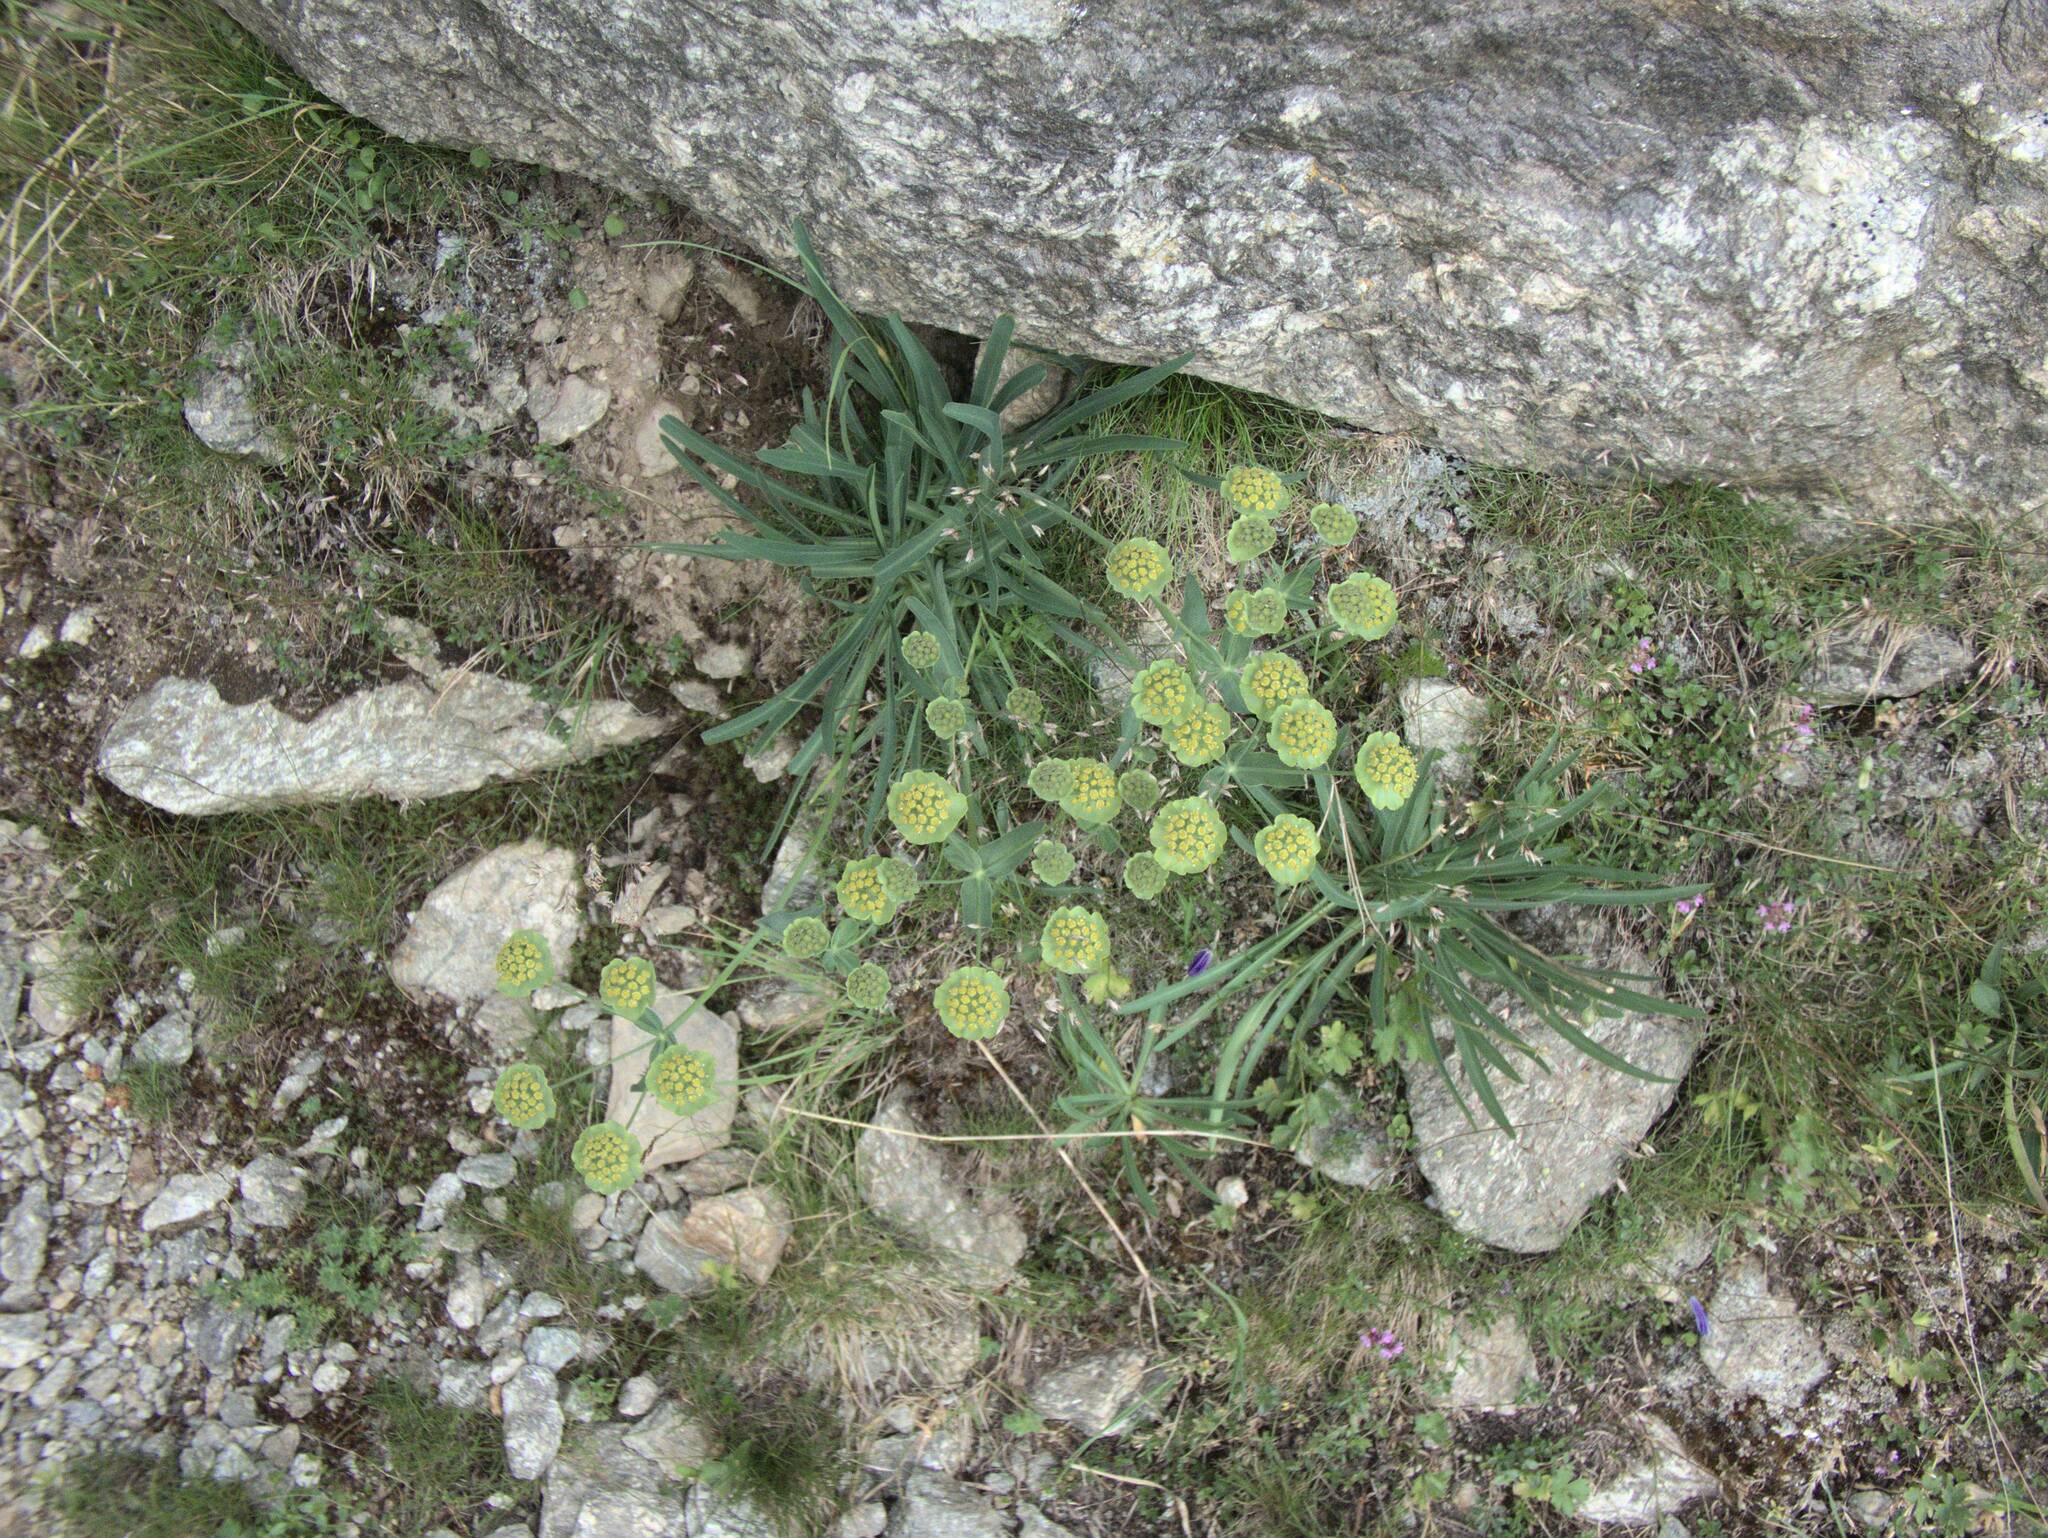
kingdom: Plantae
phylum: Tracheophyta
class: Magnoliopsida
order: Apiales
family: Apiaceae
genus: Bupleurum
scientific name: Bupleurum stellatum
